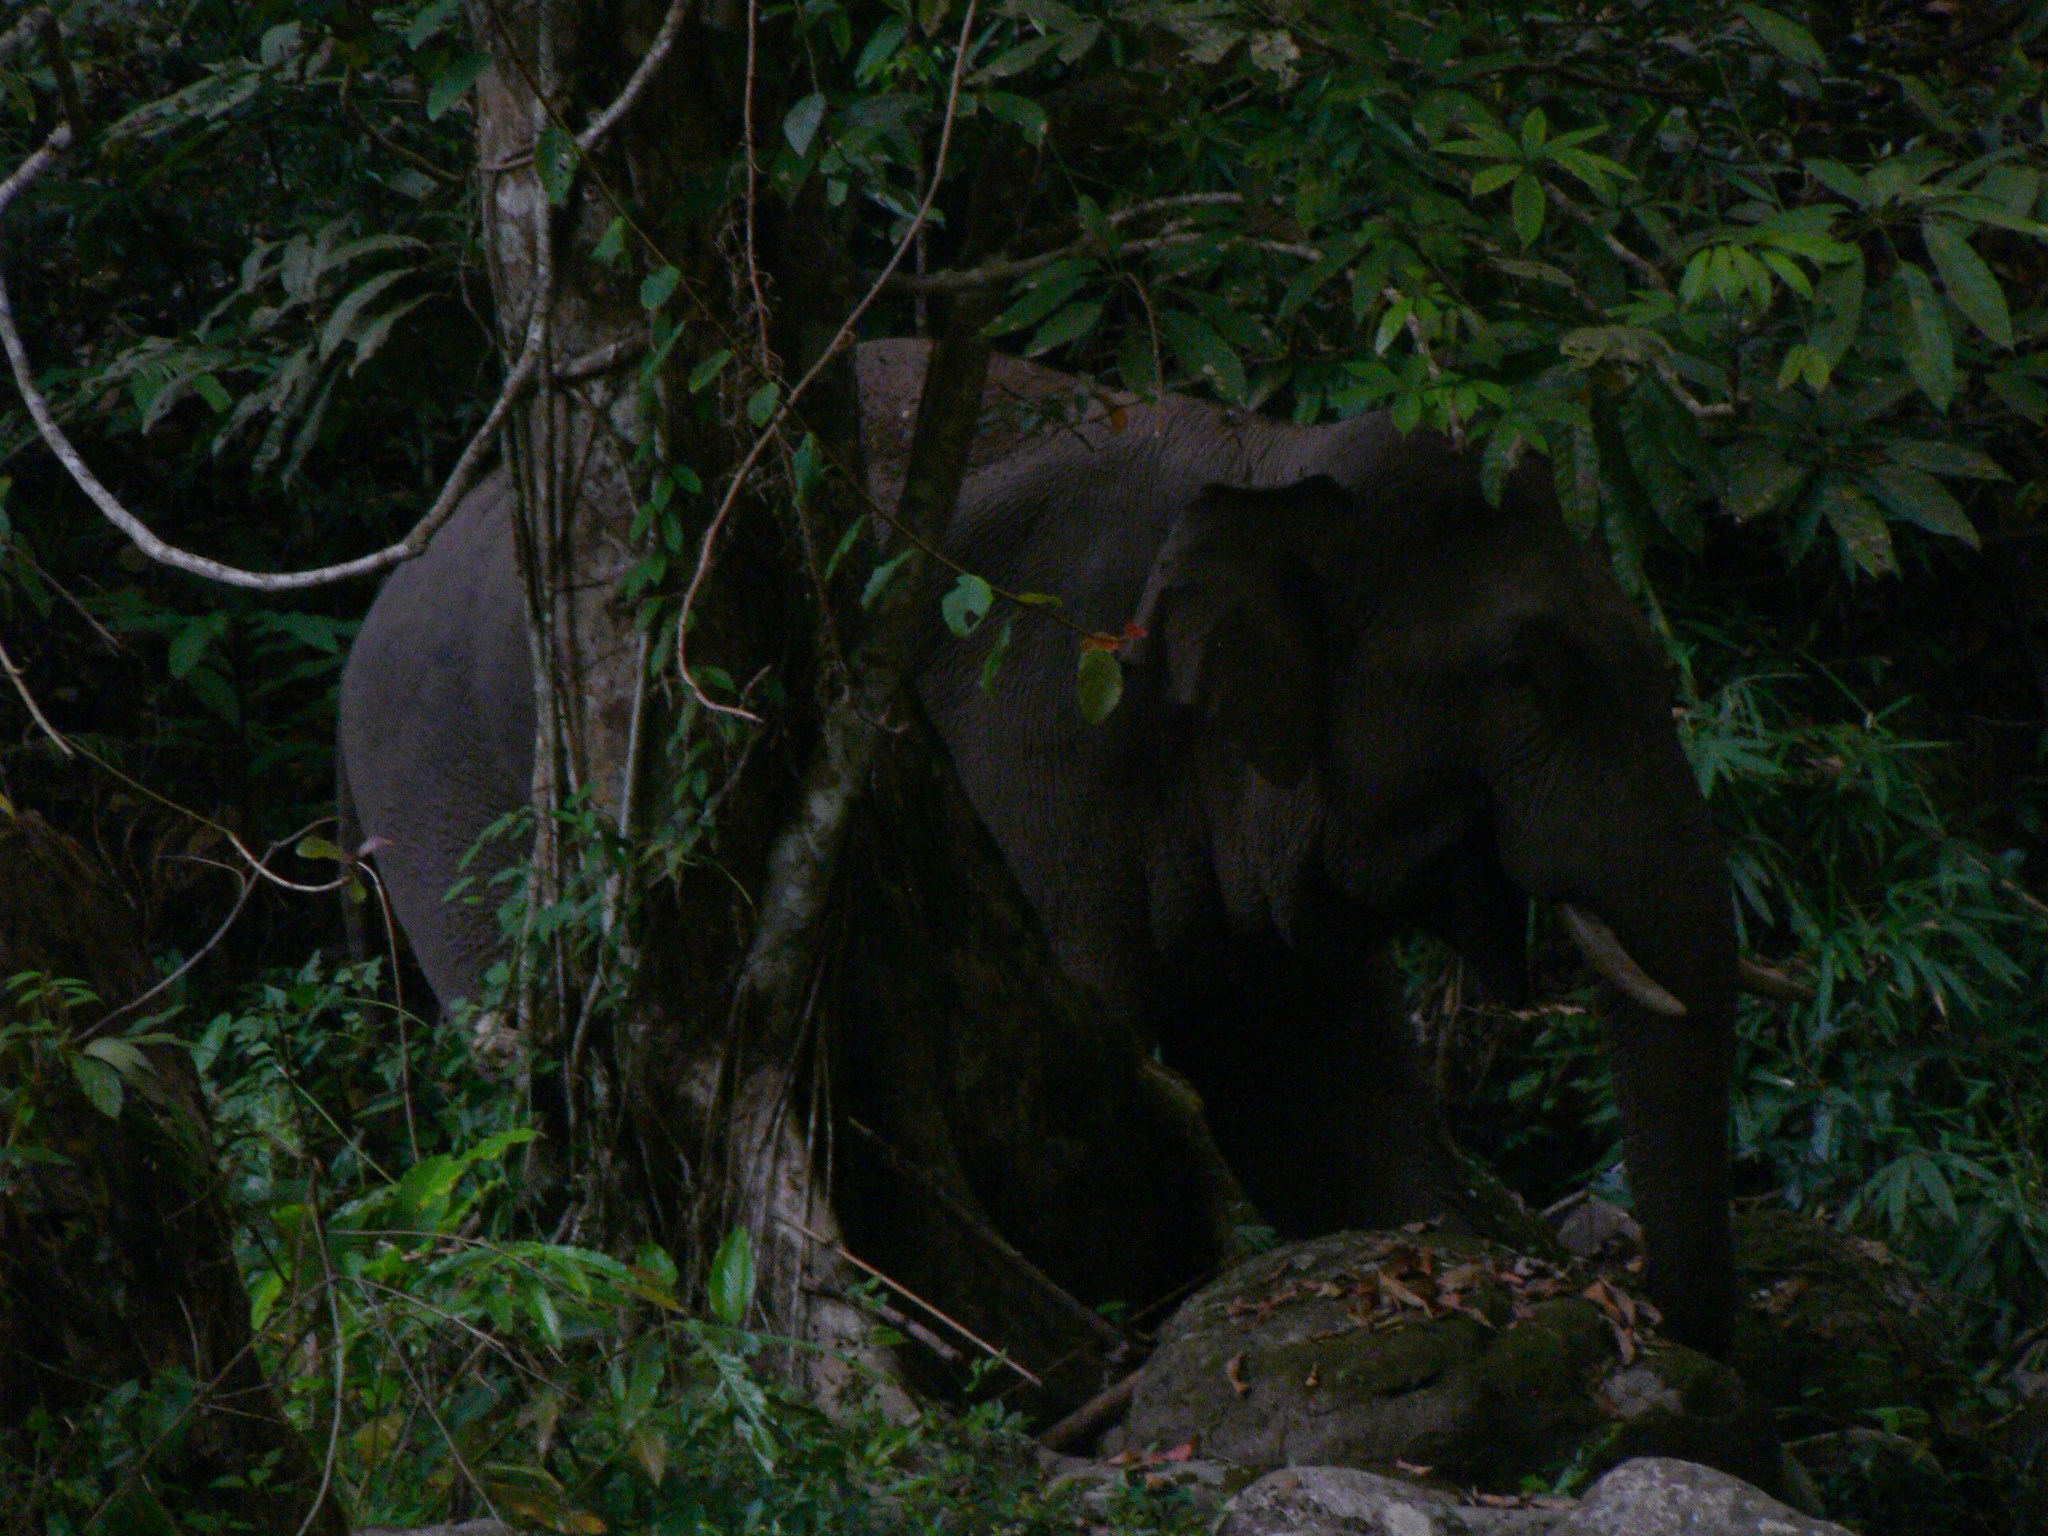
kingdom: Animalia
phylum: Chordata
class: Mammalia
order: Proboscidea
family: Elephantidae
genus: Elephas
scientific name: Elephas maximus
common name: Asian elephant
